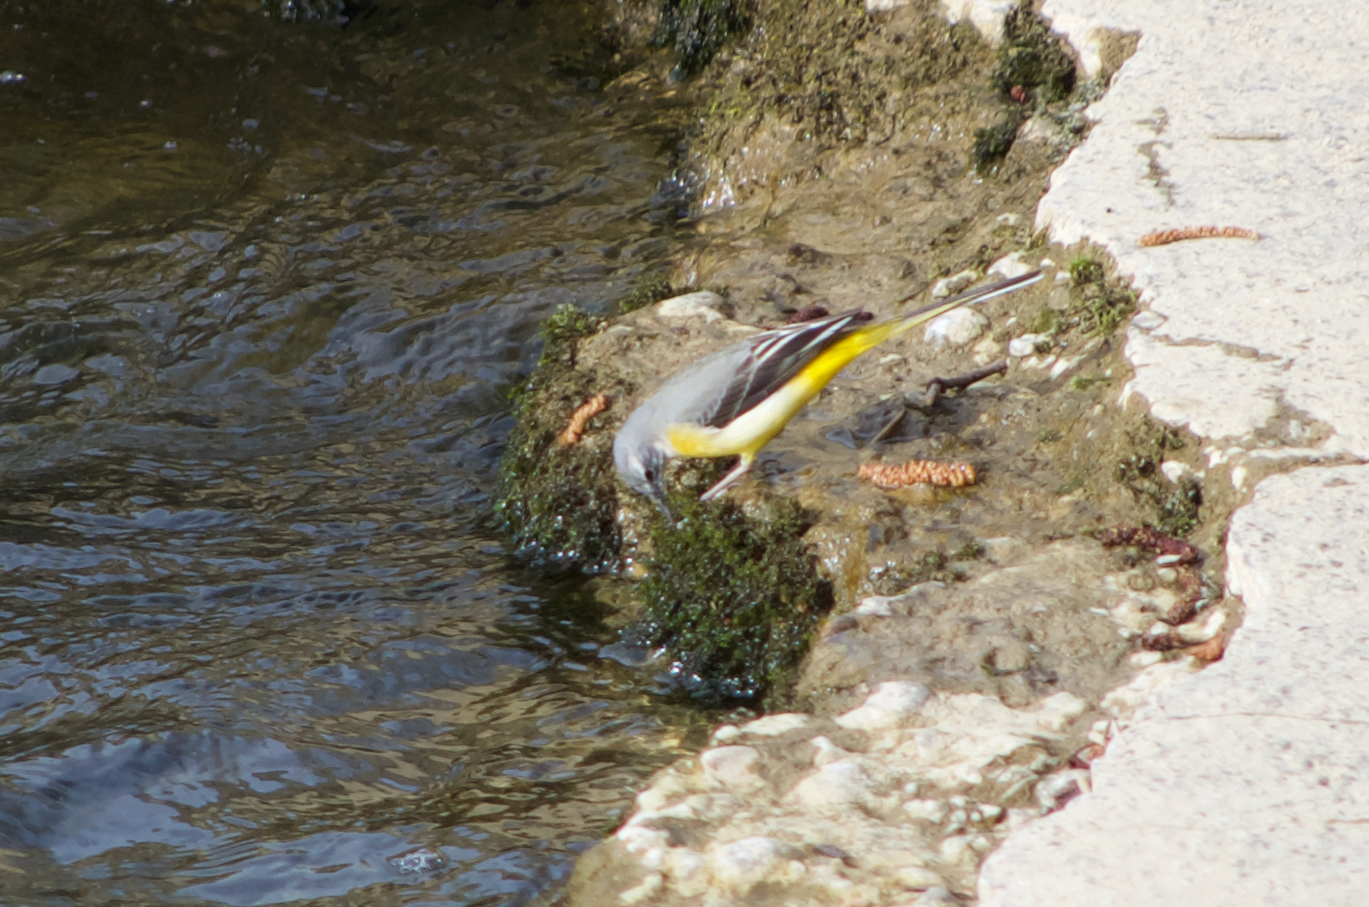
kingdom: Animalia
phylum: Chordata
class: Aves
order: Passeriformes
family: Motacillidae
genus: Motacilla
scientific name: Motacilla cinerea
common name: Grey wagtail
